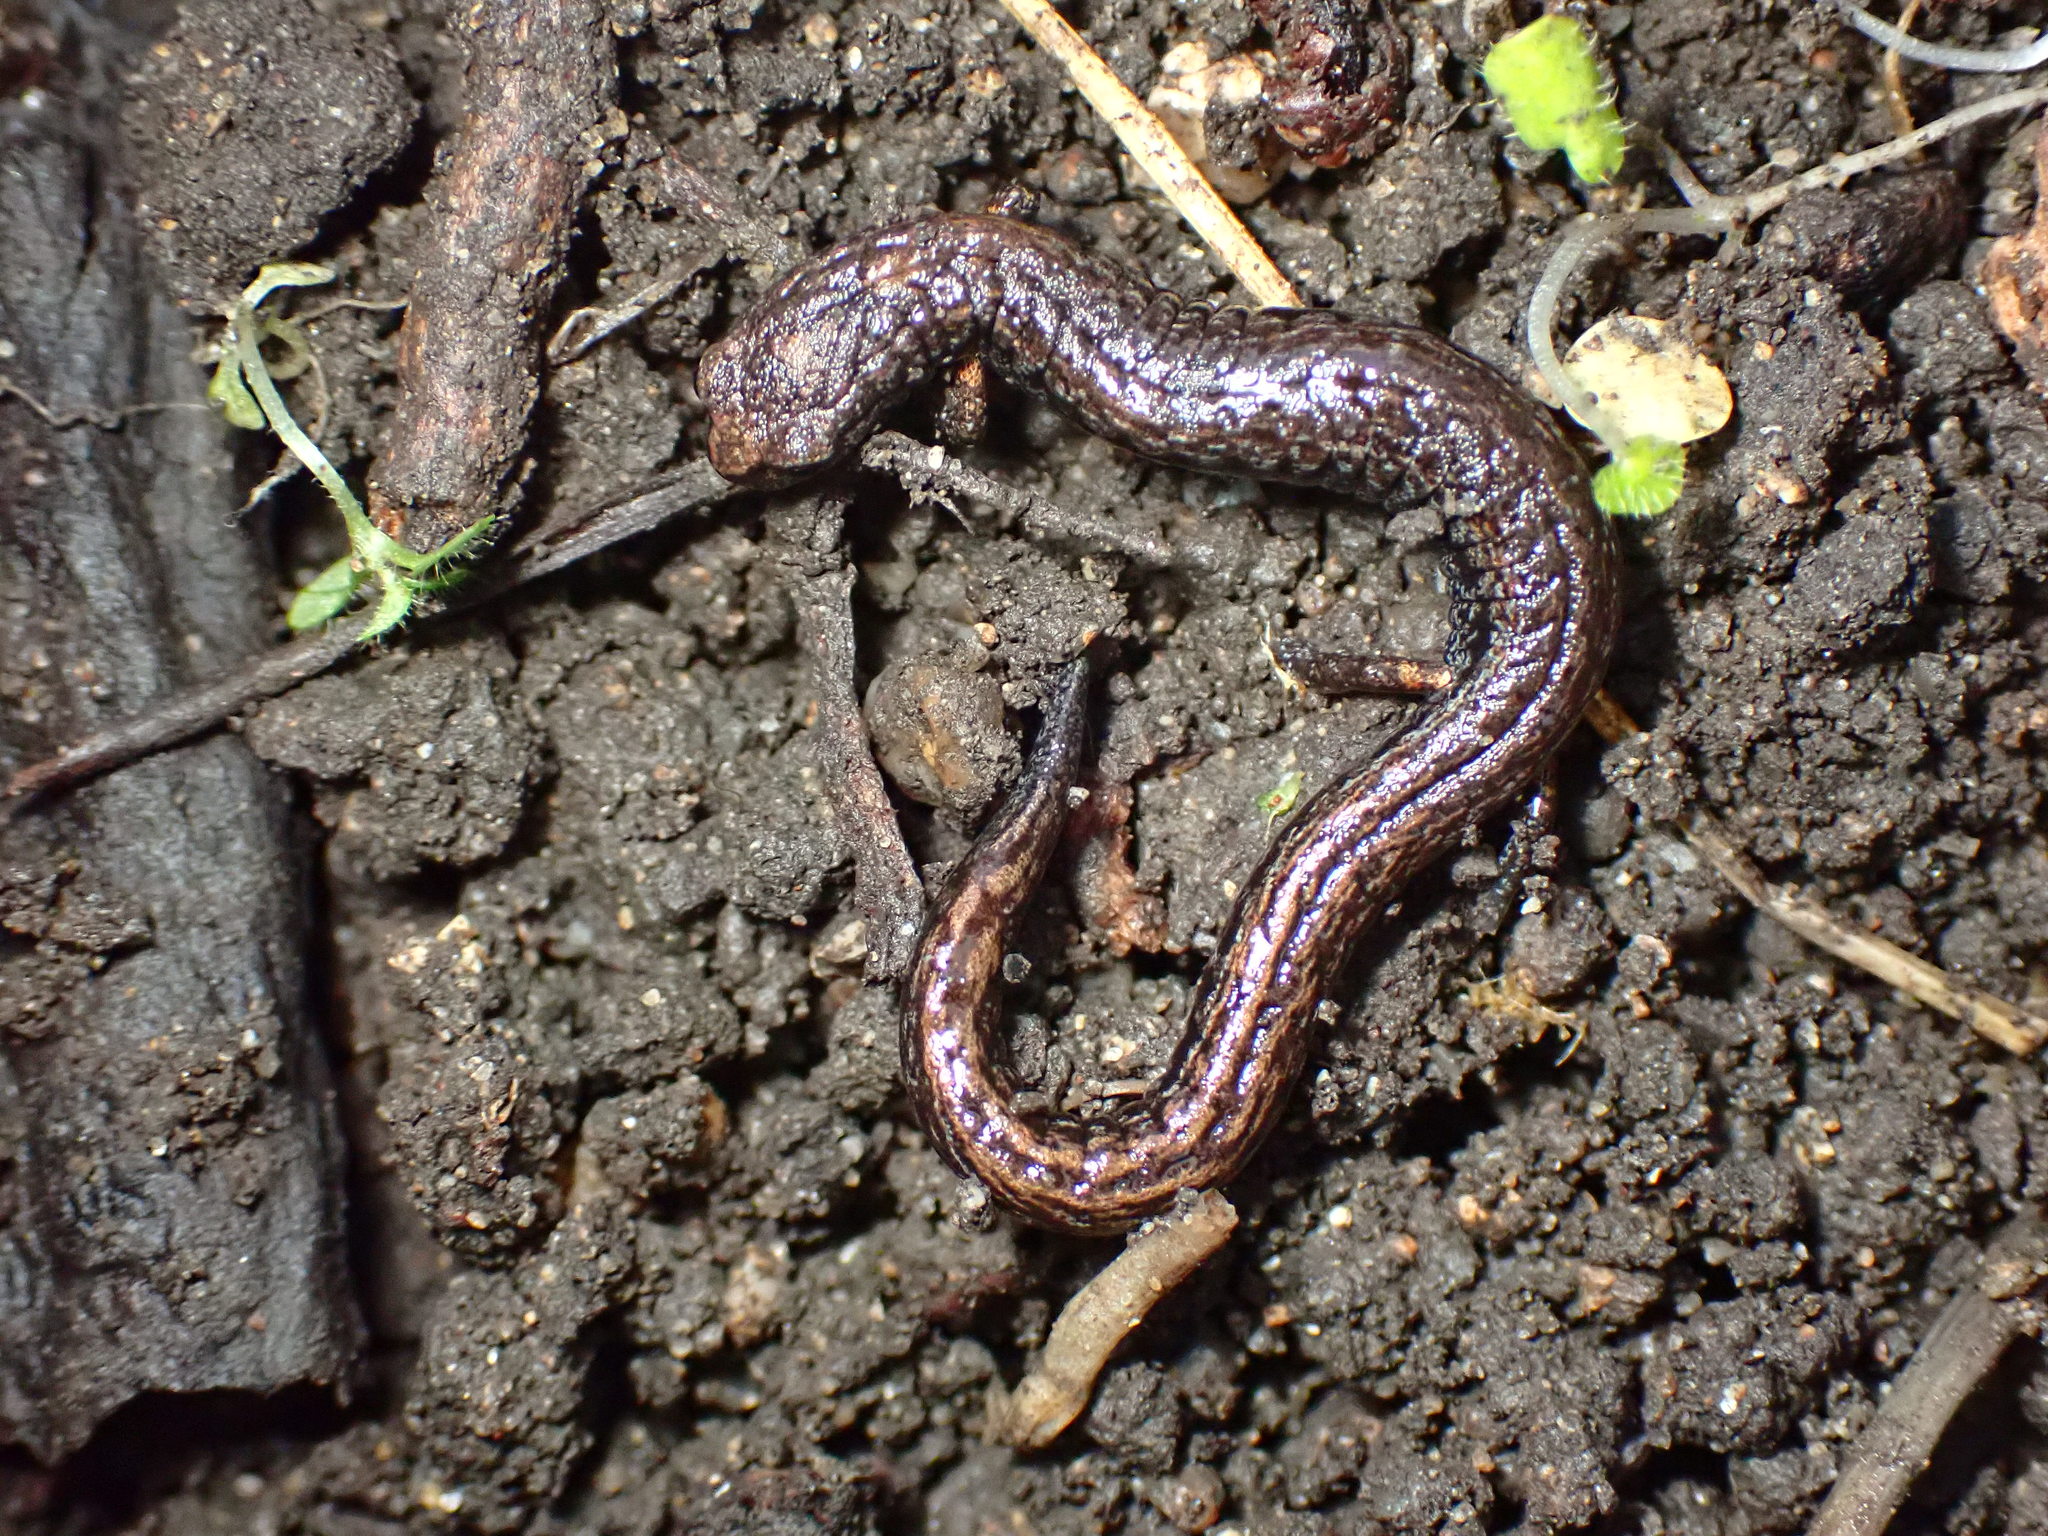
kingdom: Animalia
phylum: Chordata
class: Amphibia
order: Caudata
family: Plethodontidae
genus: Batrachoseps
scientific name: Batrachoseps attenuatus
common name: California slender salamander
